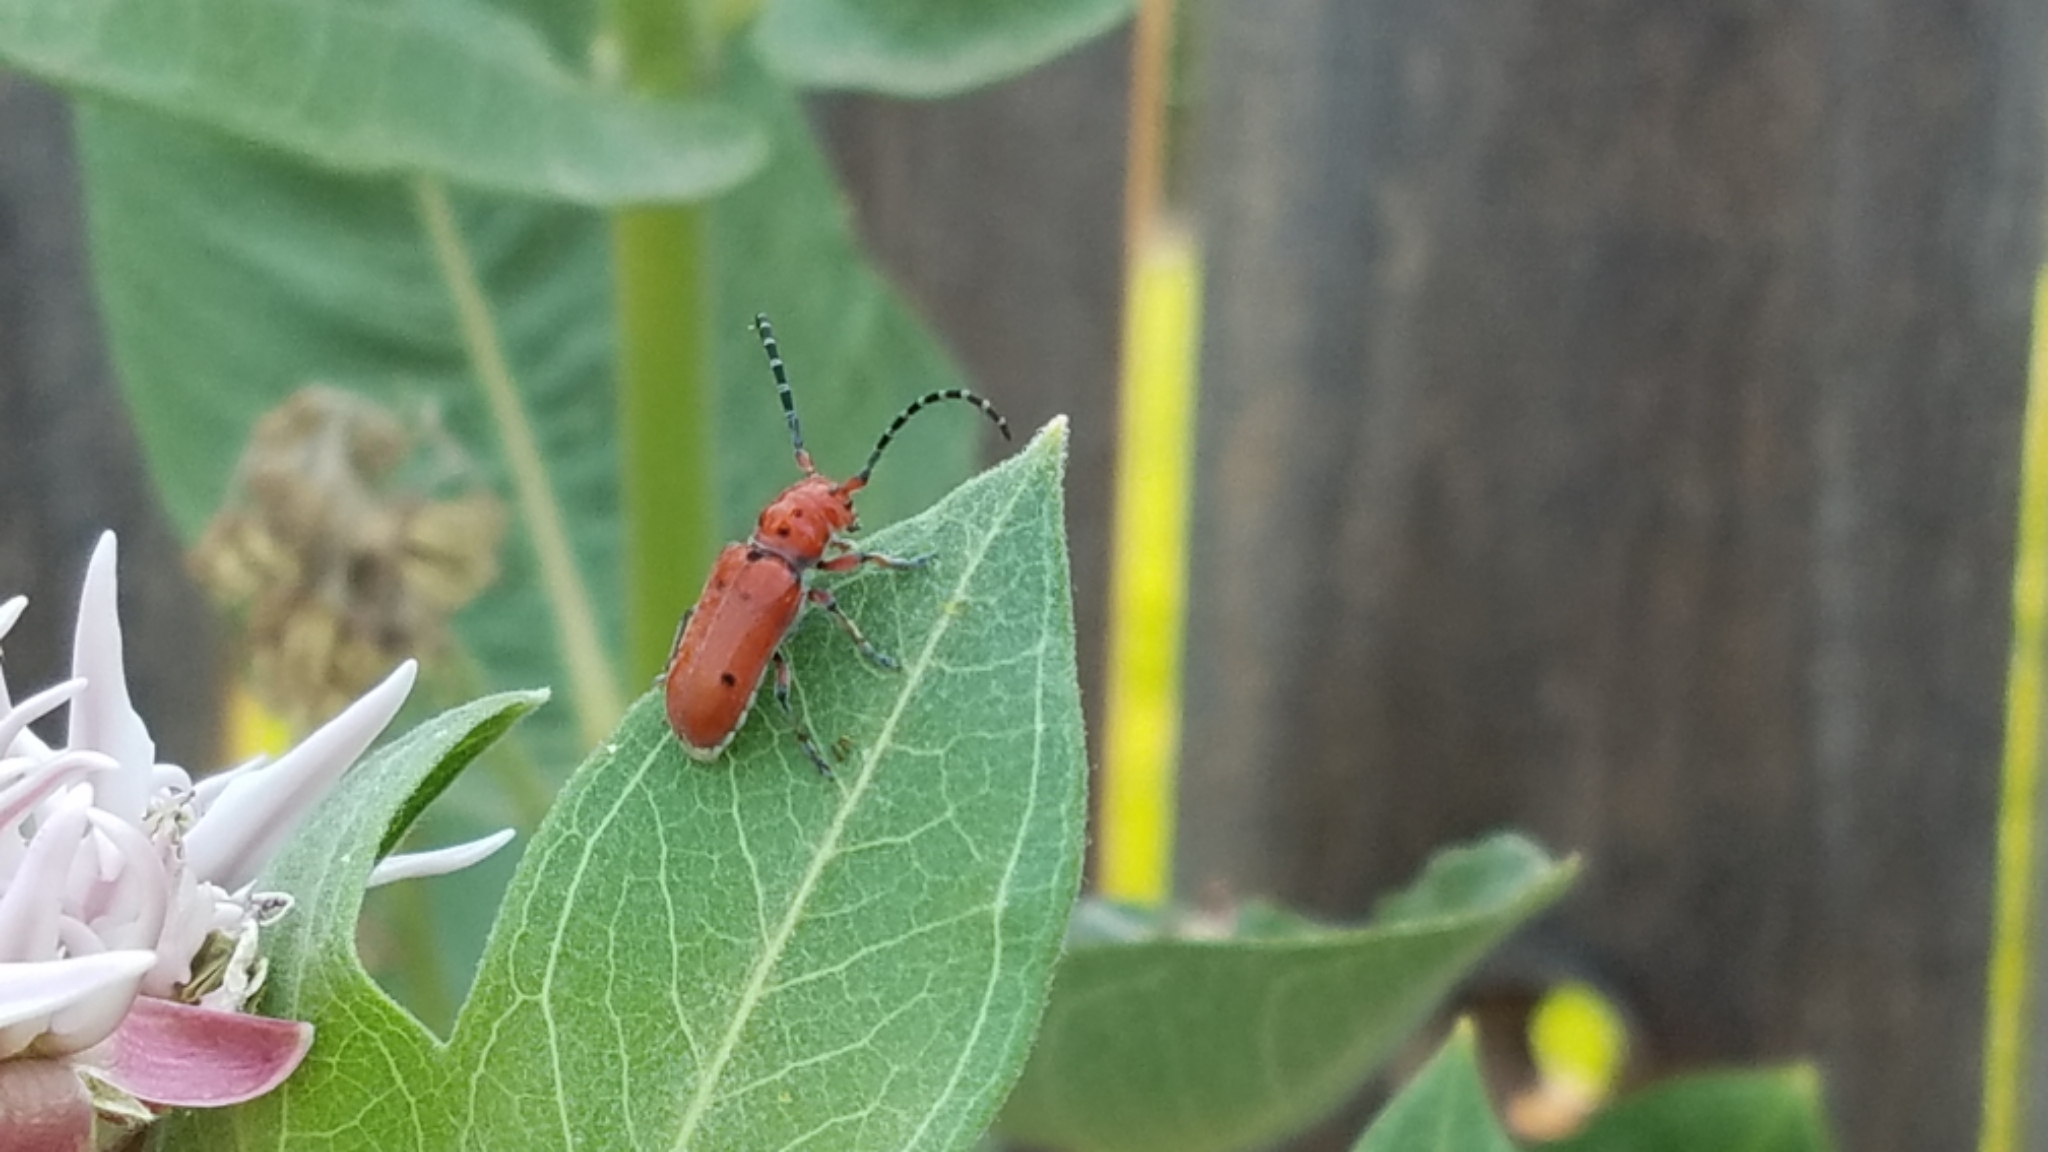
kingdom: Animalia
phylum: Arthropoda
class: Insecta
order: Coleoptera
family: Cerambycidae
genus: Tetraopes
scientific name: Tetraopes femoratus
